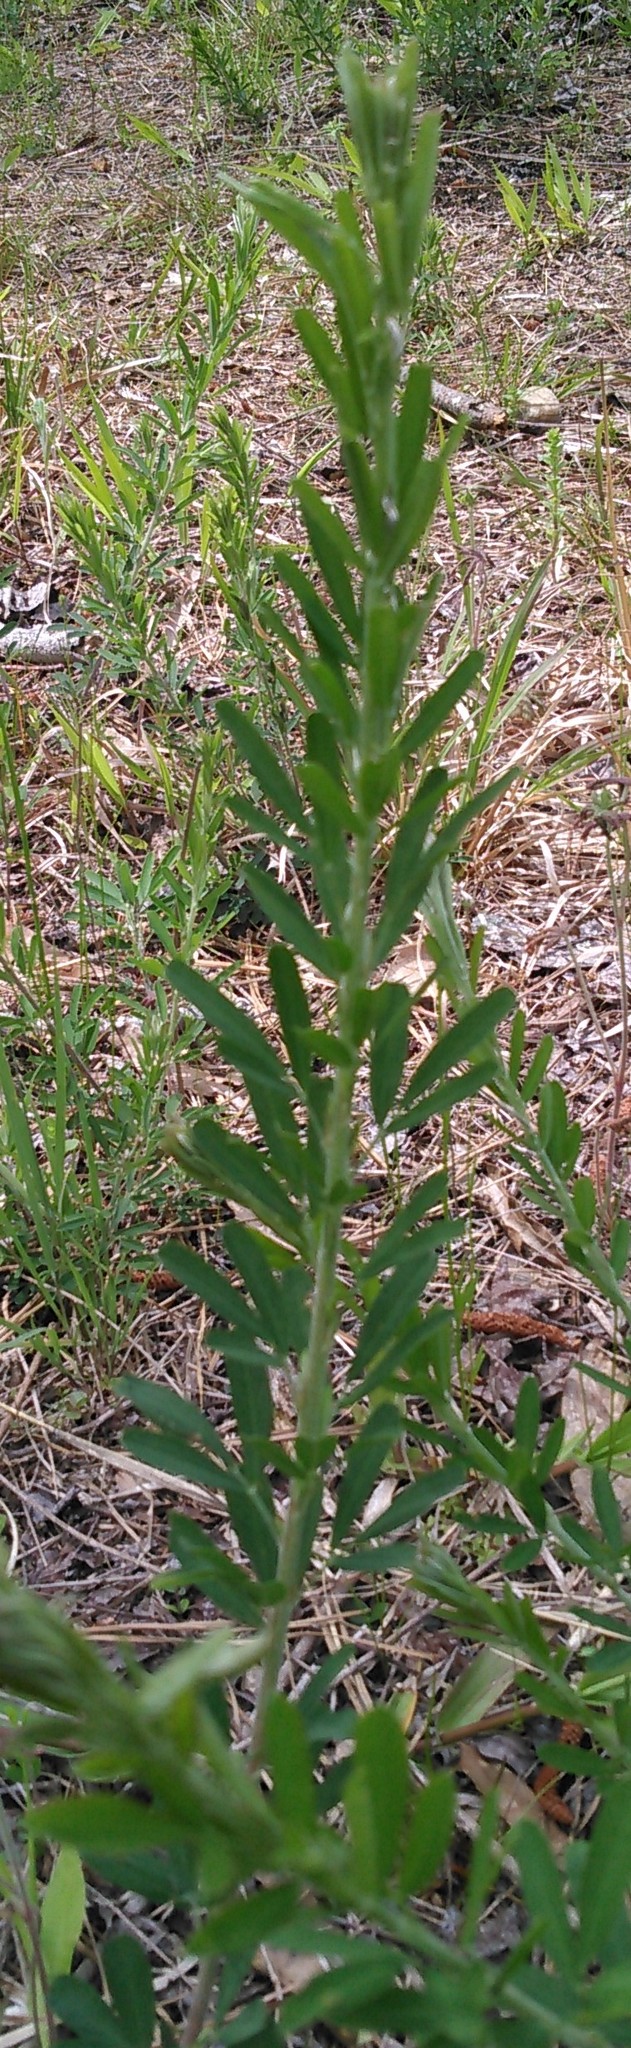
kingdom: Plantae
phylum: Tracheophyta
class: Magnoliopsida
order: Fabales
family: Fabaceae
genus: Lespedeza
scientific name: Lespedeza cuneata
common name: Chinese bush-clover
